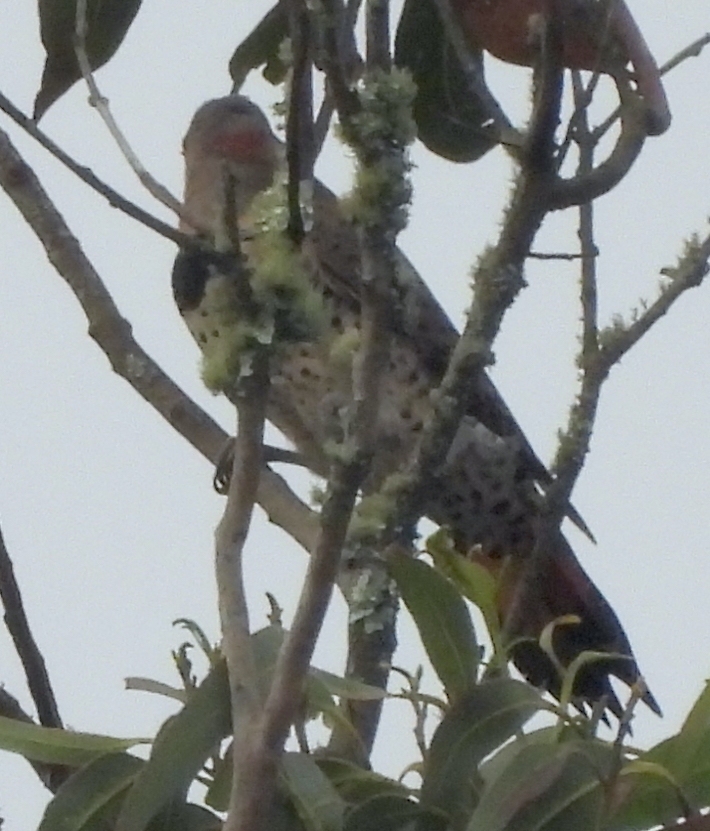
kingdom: Animalia
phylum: Chordata
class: Aves
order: Piciformes
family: Picidae
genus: Colaptes
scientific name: Colaptes
